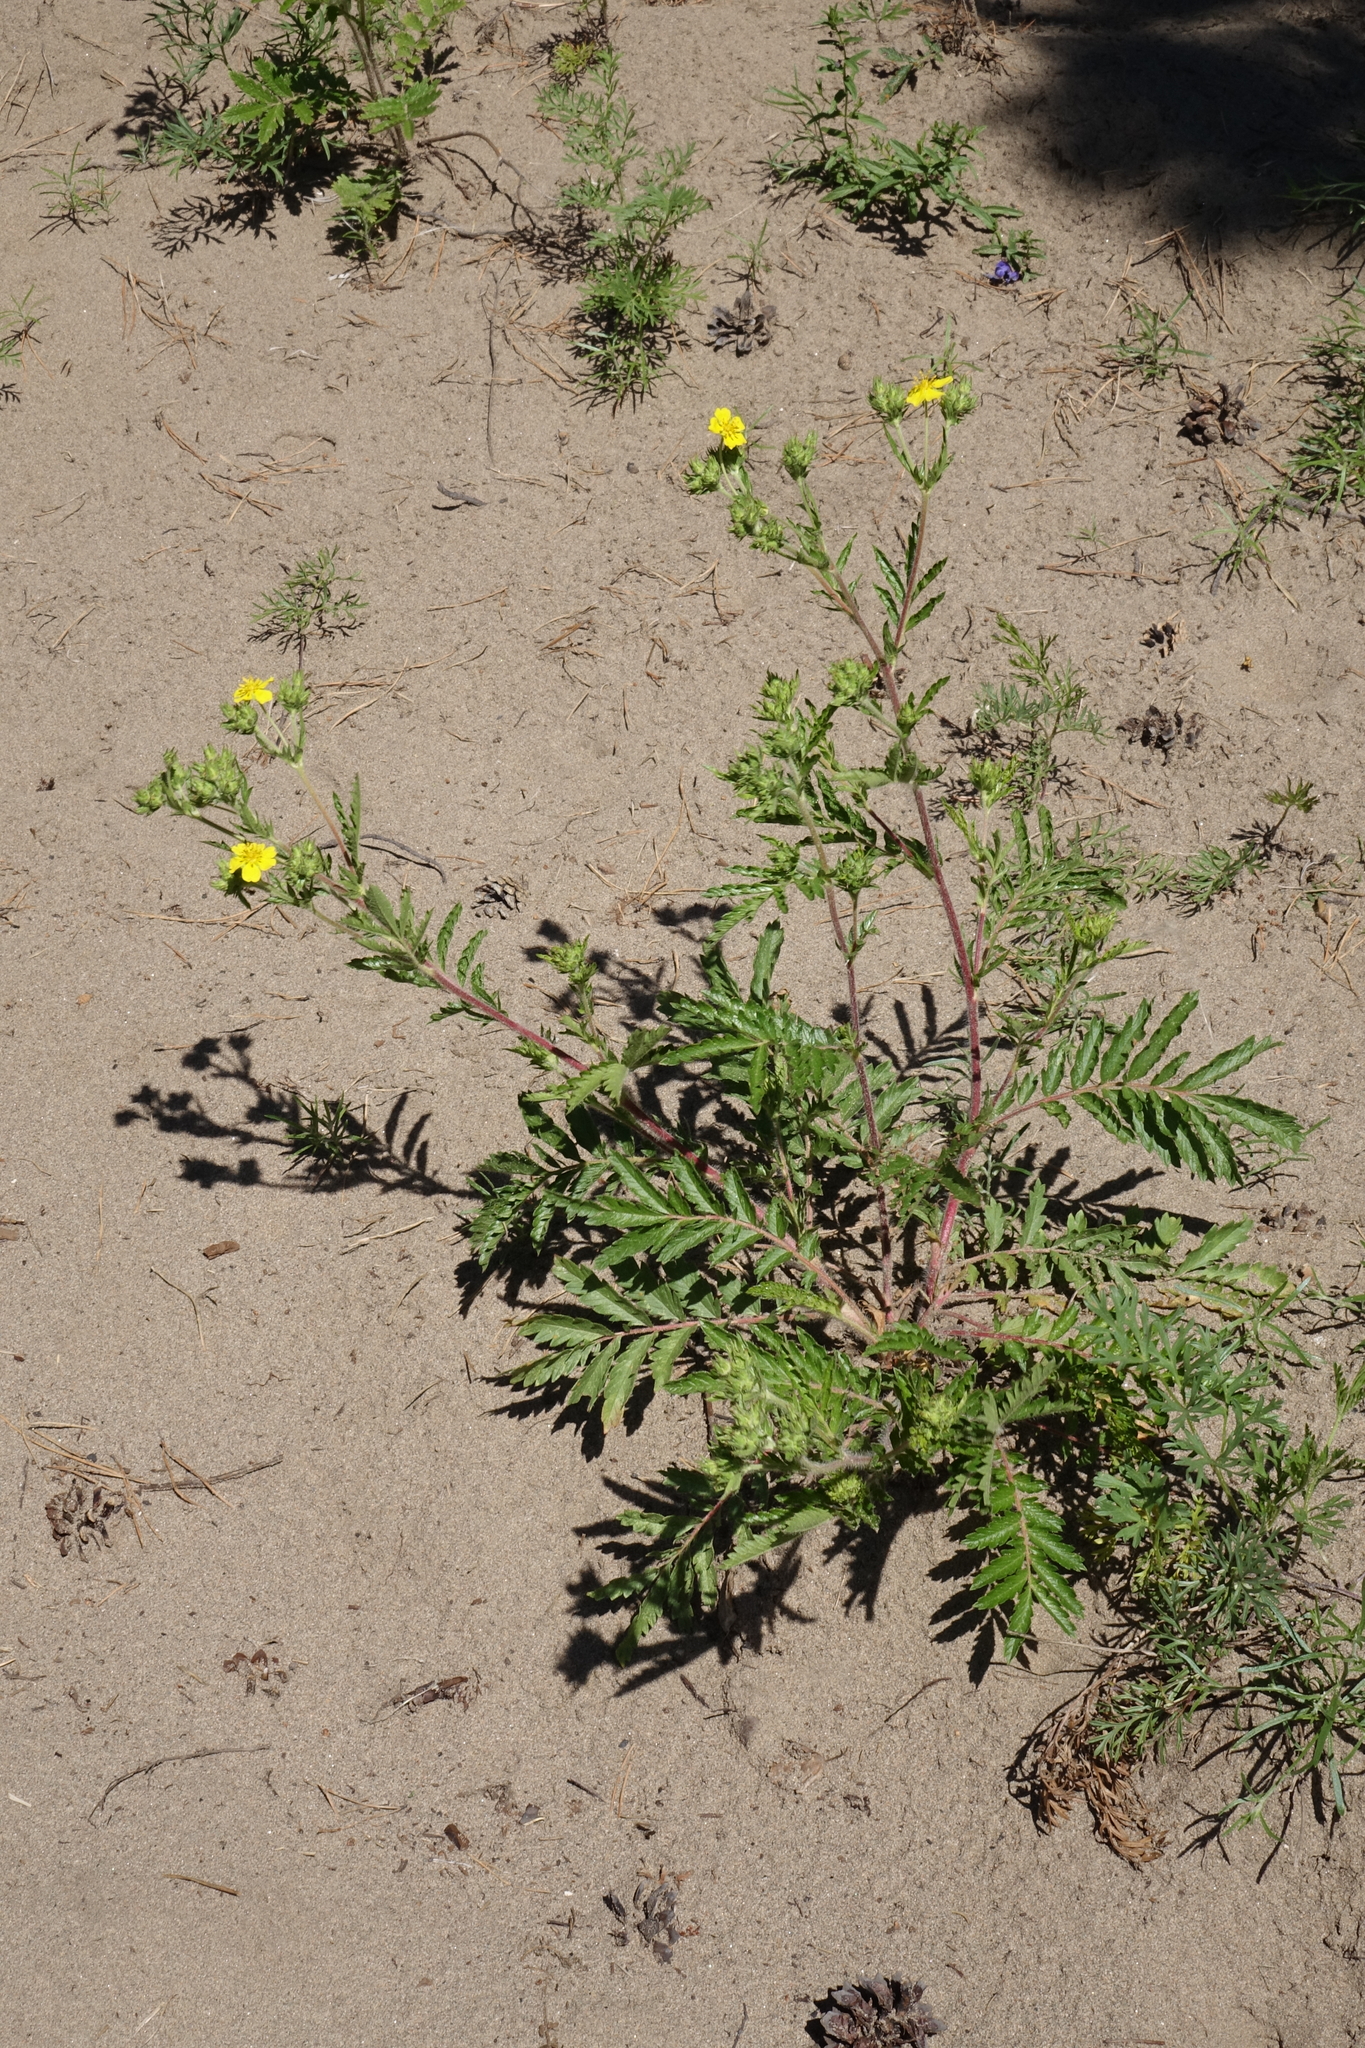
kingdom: Plantae
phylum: Tracheophyta
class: Magnoliopsida
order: Rosales
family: Rosaceae
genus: Potentilla
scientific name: Potentilla tanacetifolia
